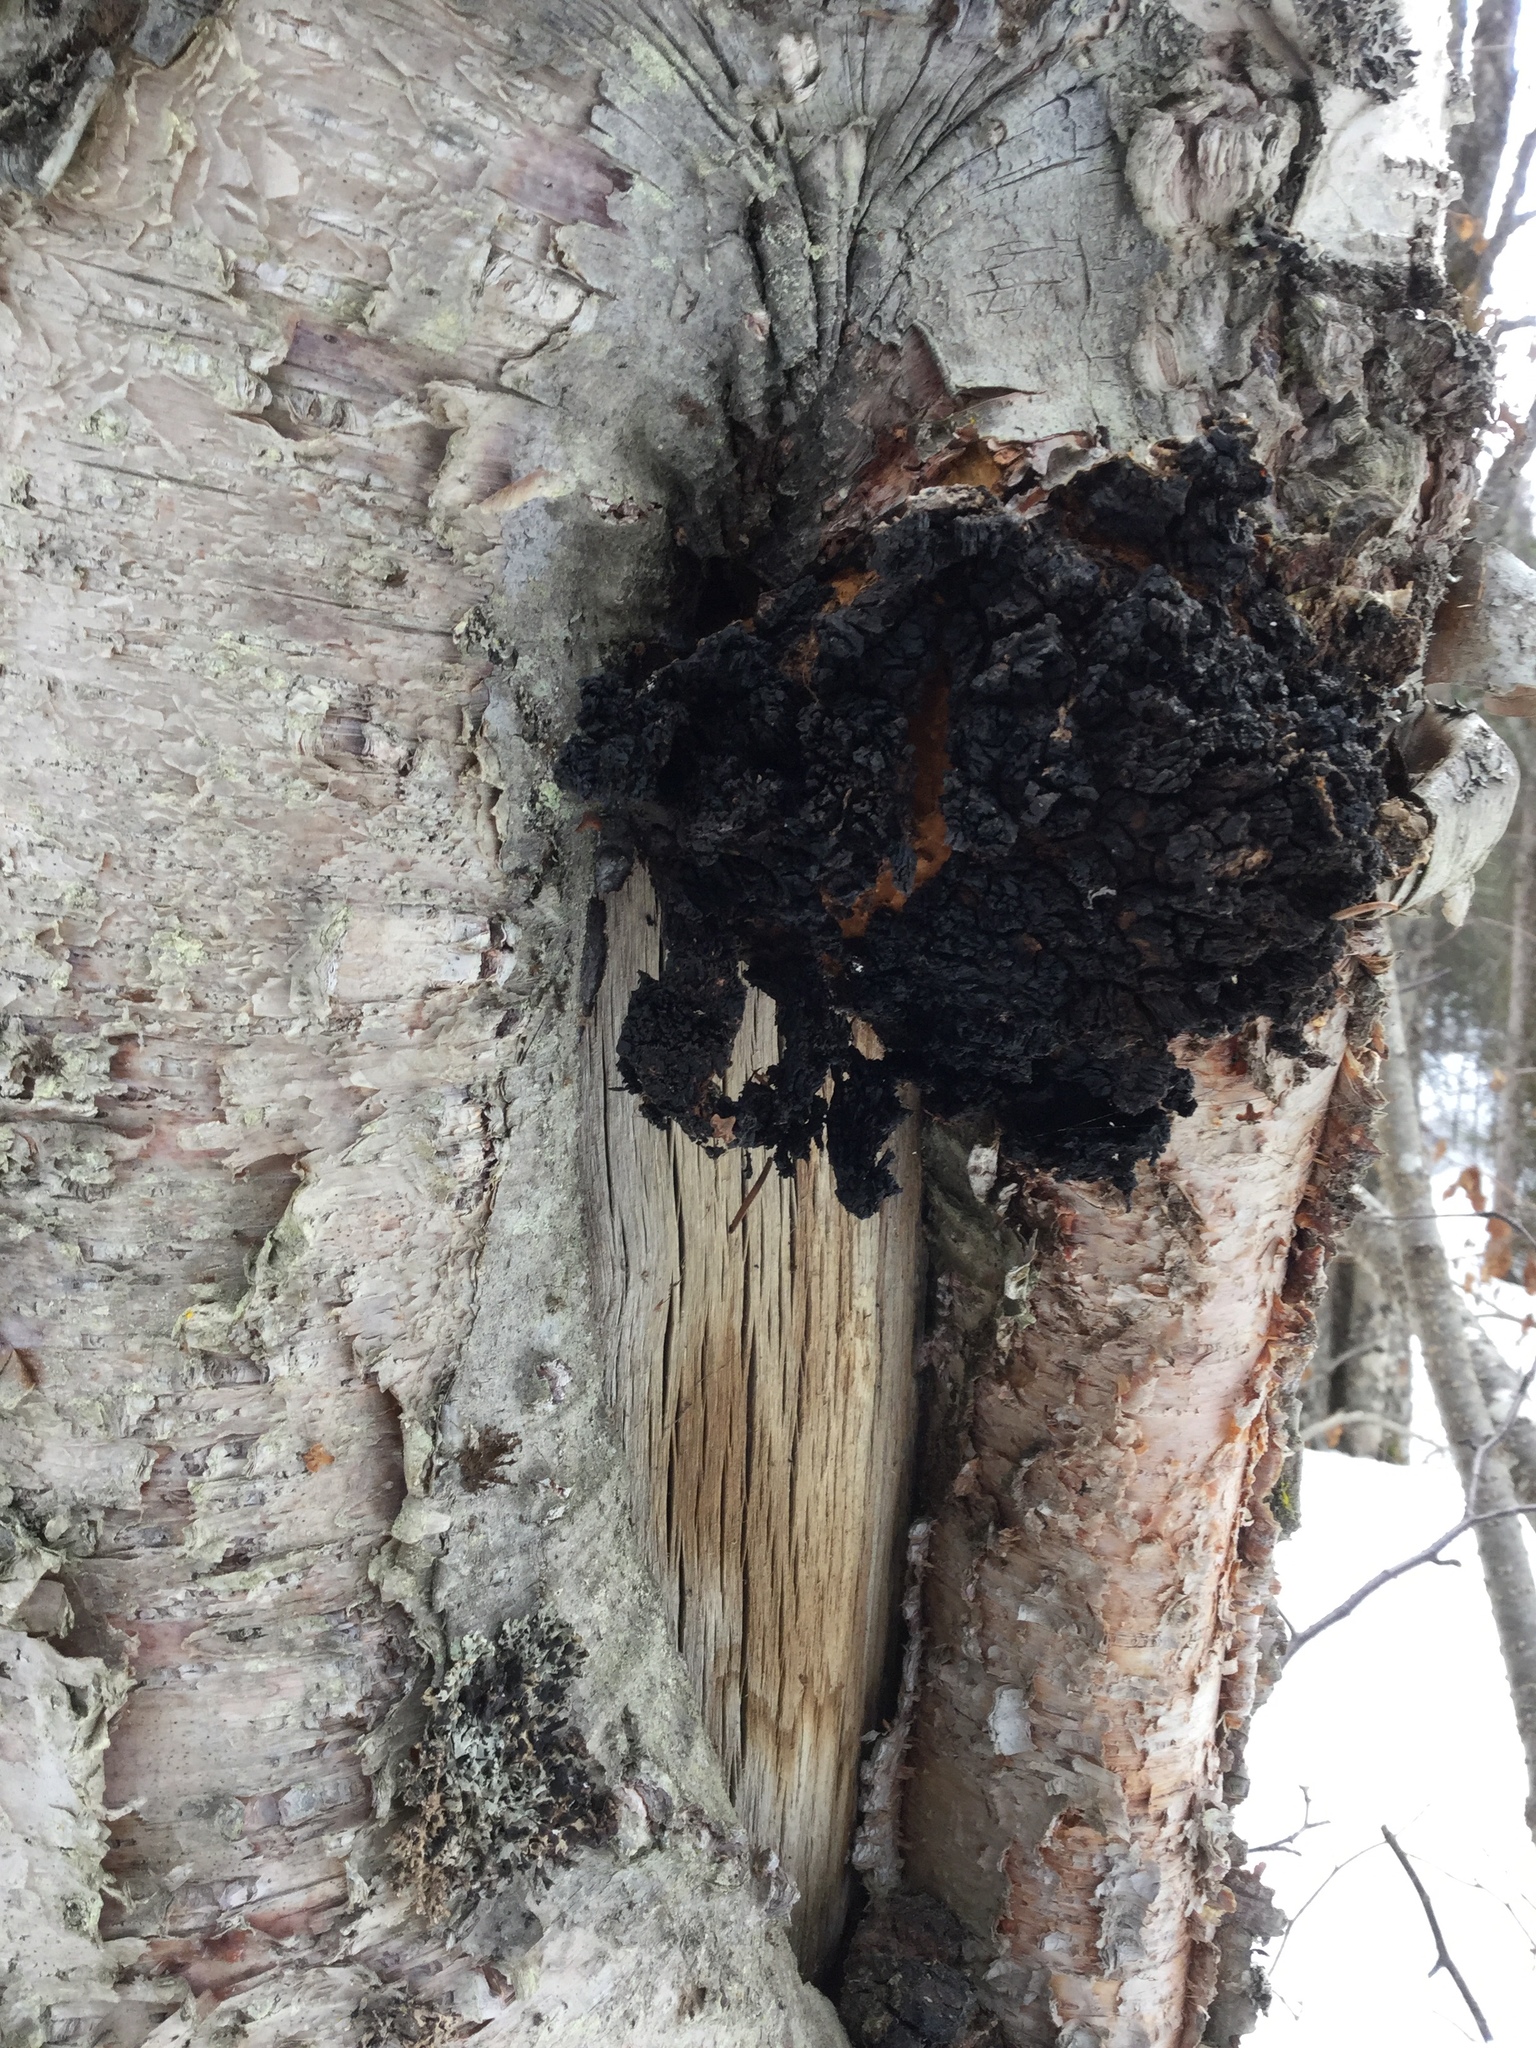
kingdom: Fungi
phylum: Basidiomycota
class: Agaricomycetes
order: Hymenochaetales
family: Hymenochaetaceae
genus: Inonotus
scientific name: Inonotus obliquus
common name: Chaga
